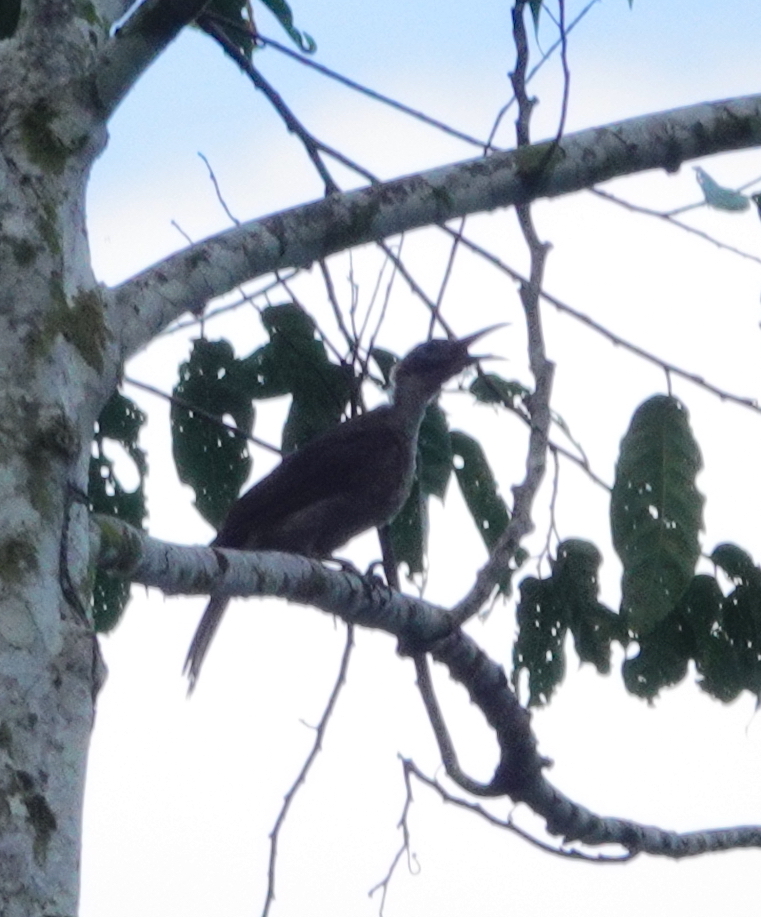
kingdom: Animalia
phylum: Chordata
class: Aves
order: Passeriformes
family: Meliphagidae
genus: Philemon
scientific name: Philemon moluccensis
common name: Black-faced friarbird
